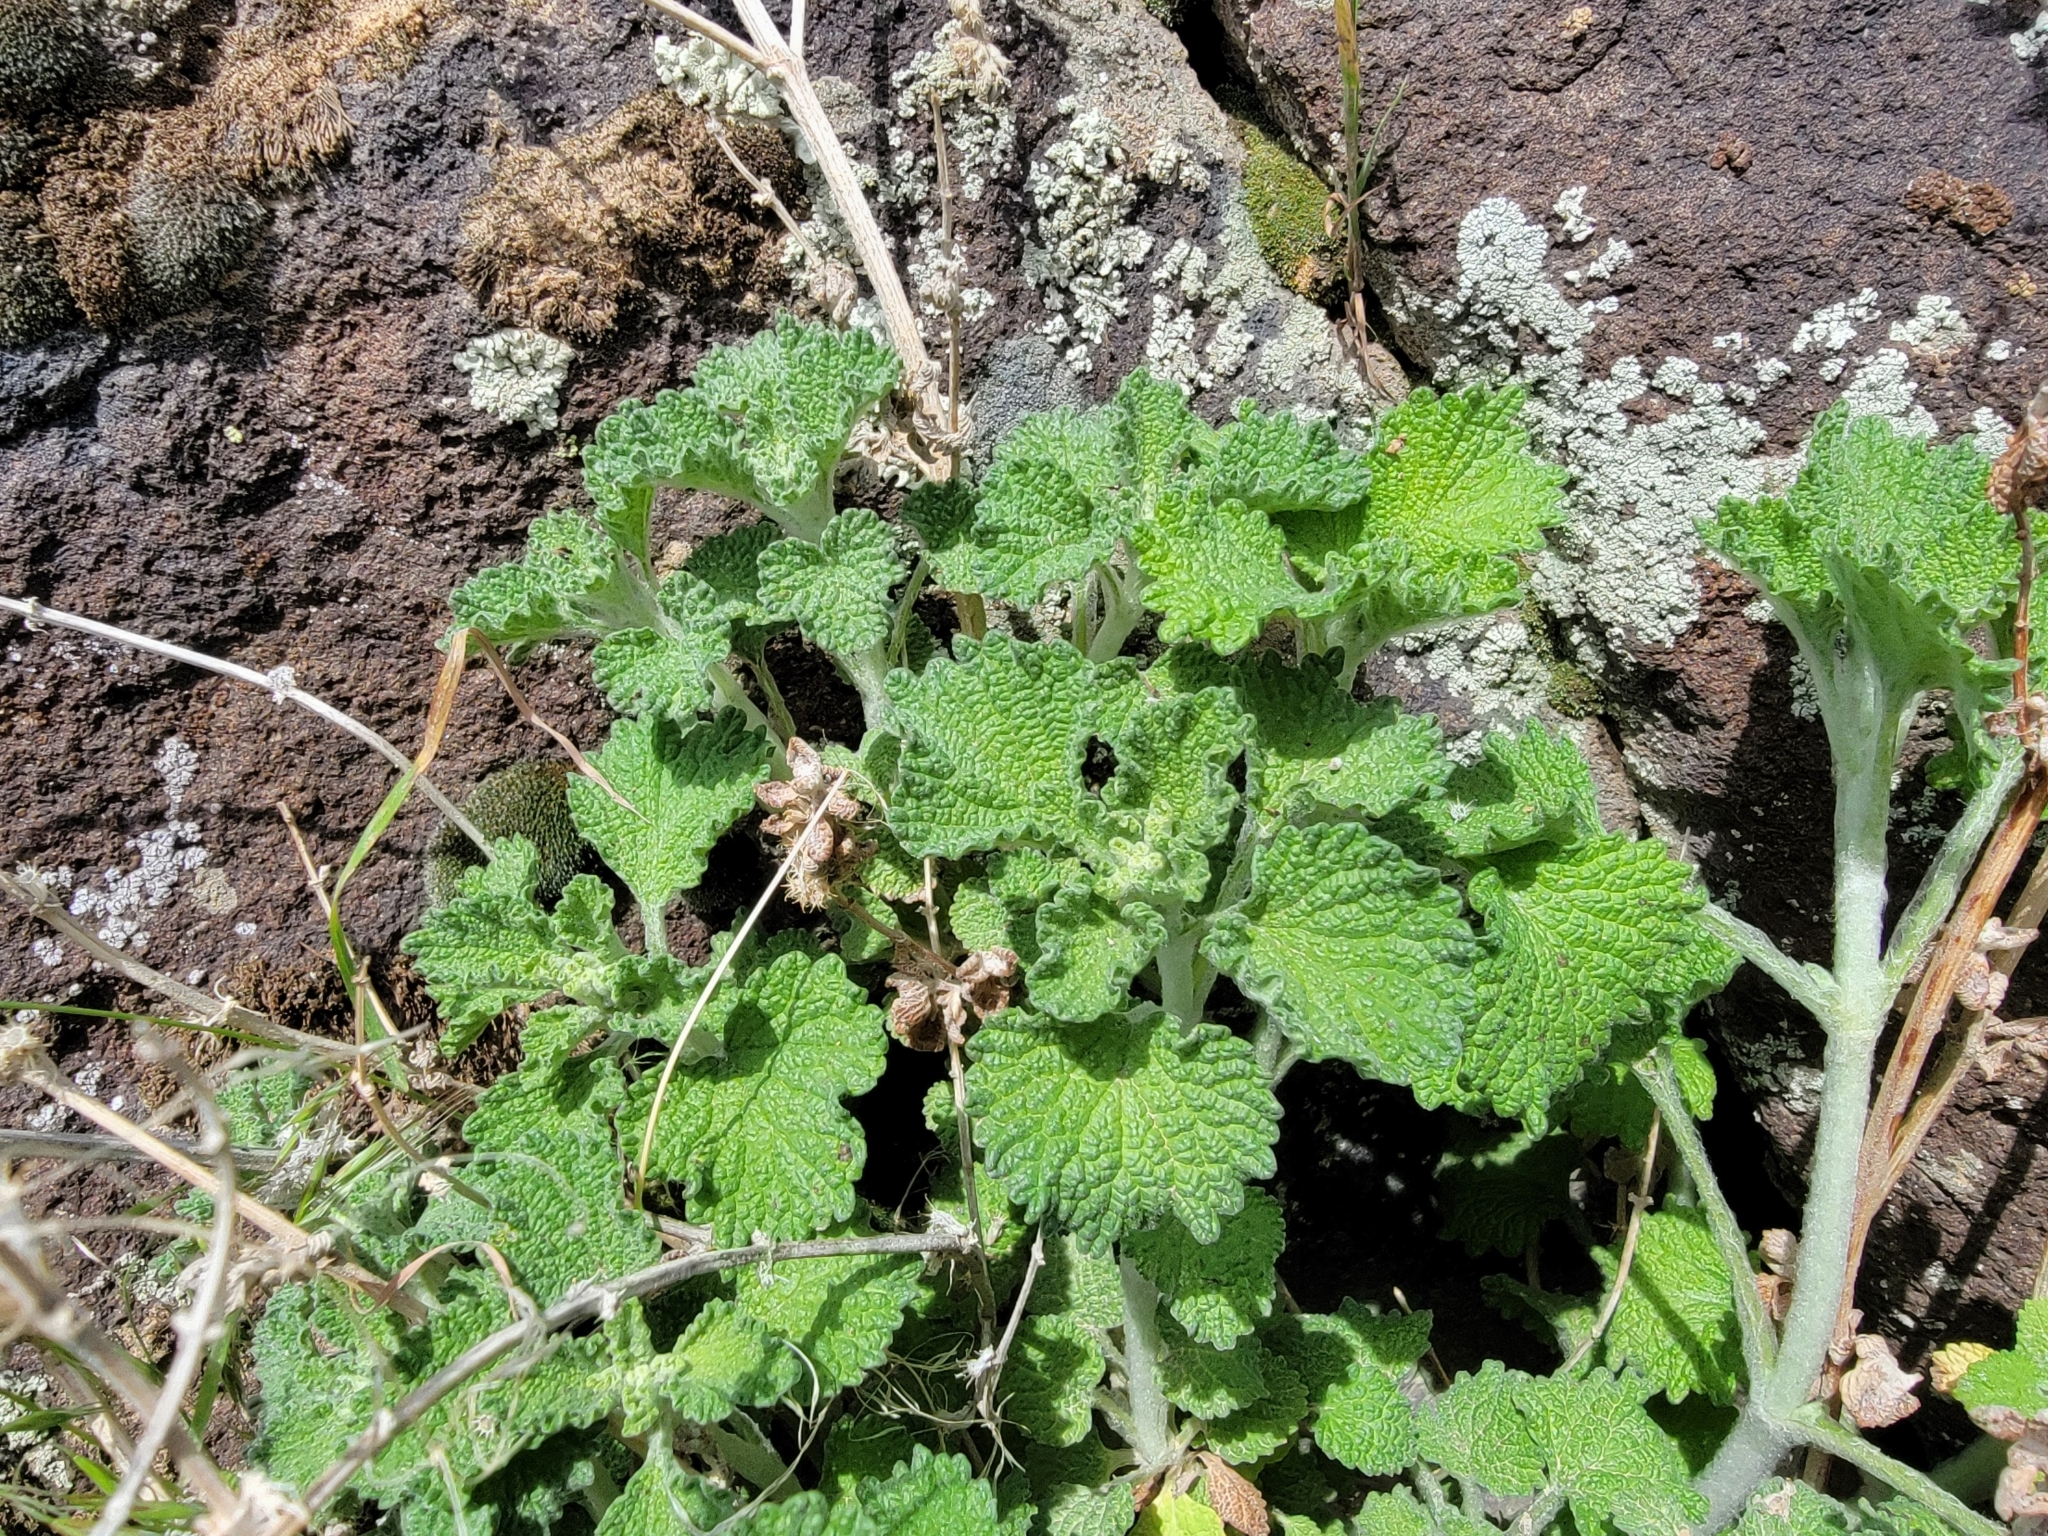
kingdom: Plantae
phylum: Tracheophyta
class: Magnoliopsida
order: Lamiales
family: Lamiaceae
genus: Marrubium
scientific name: Marrubium vulgare
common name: Horehound
